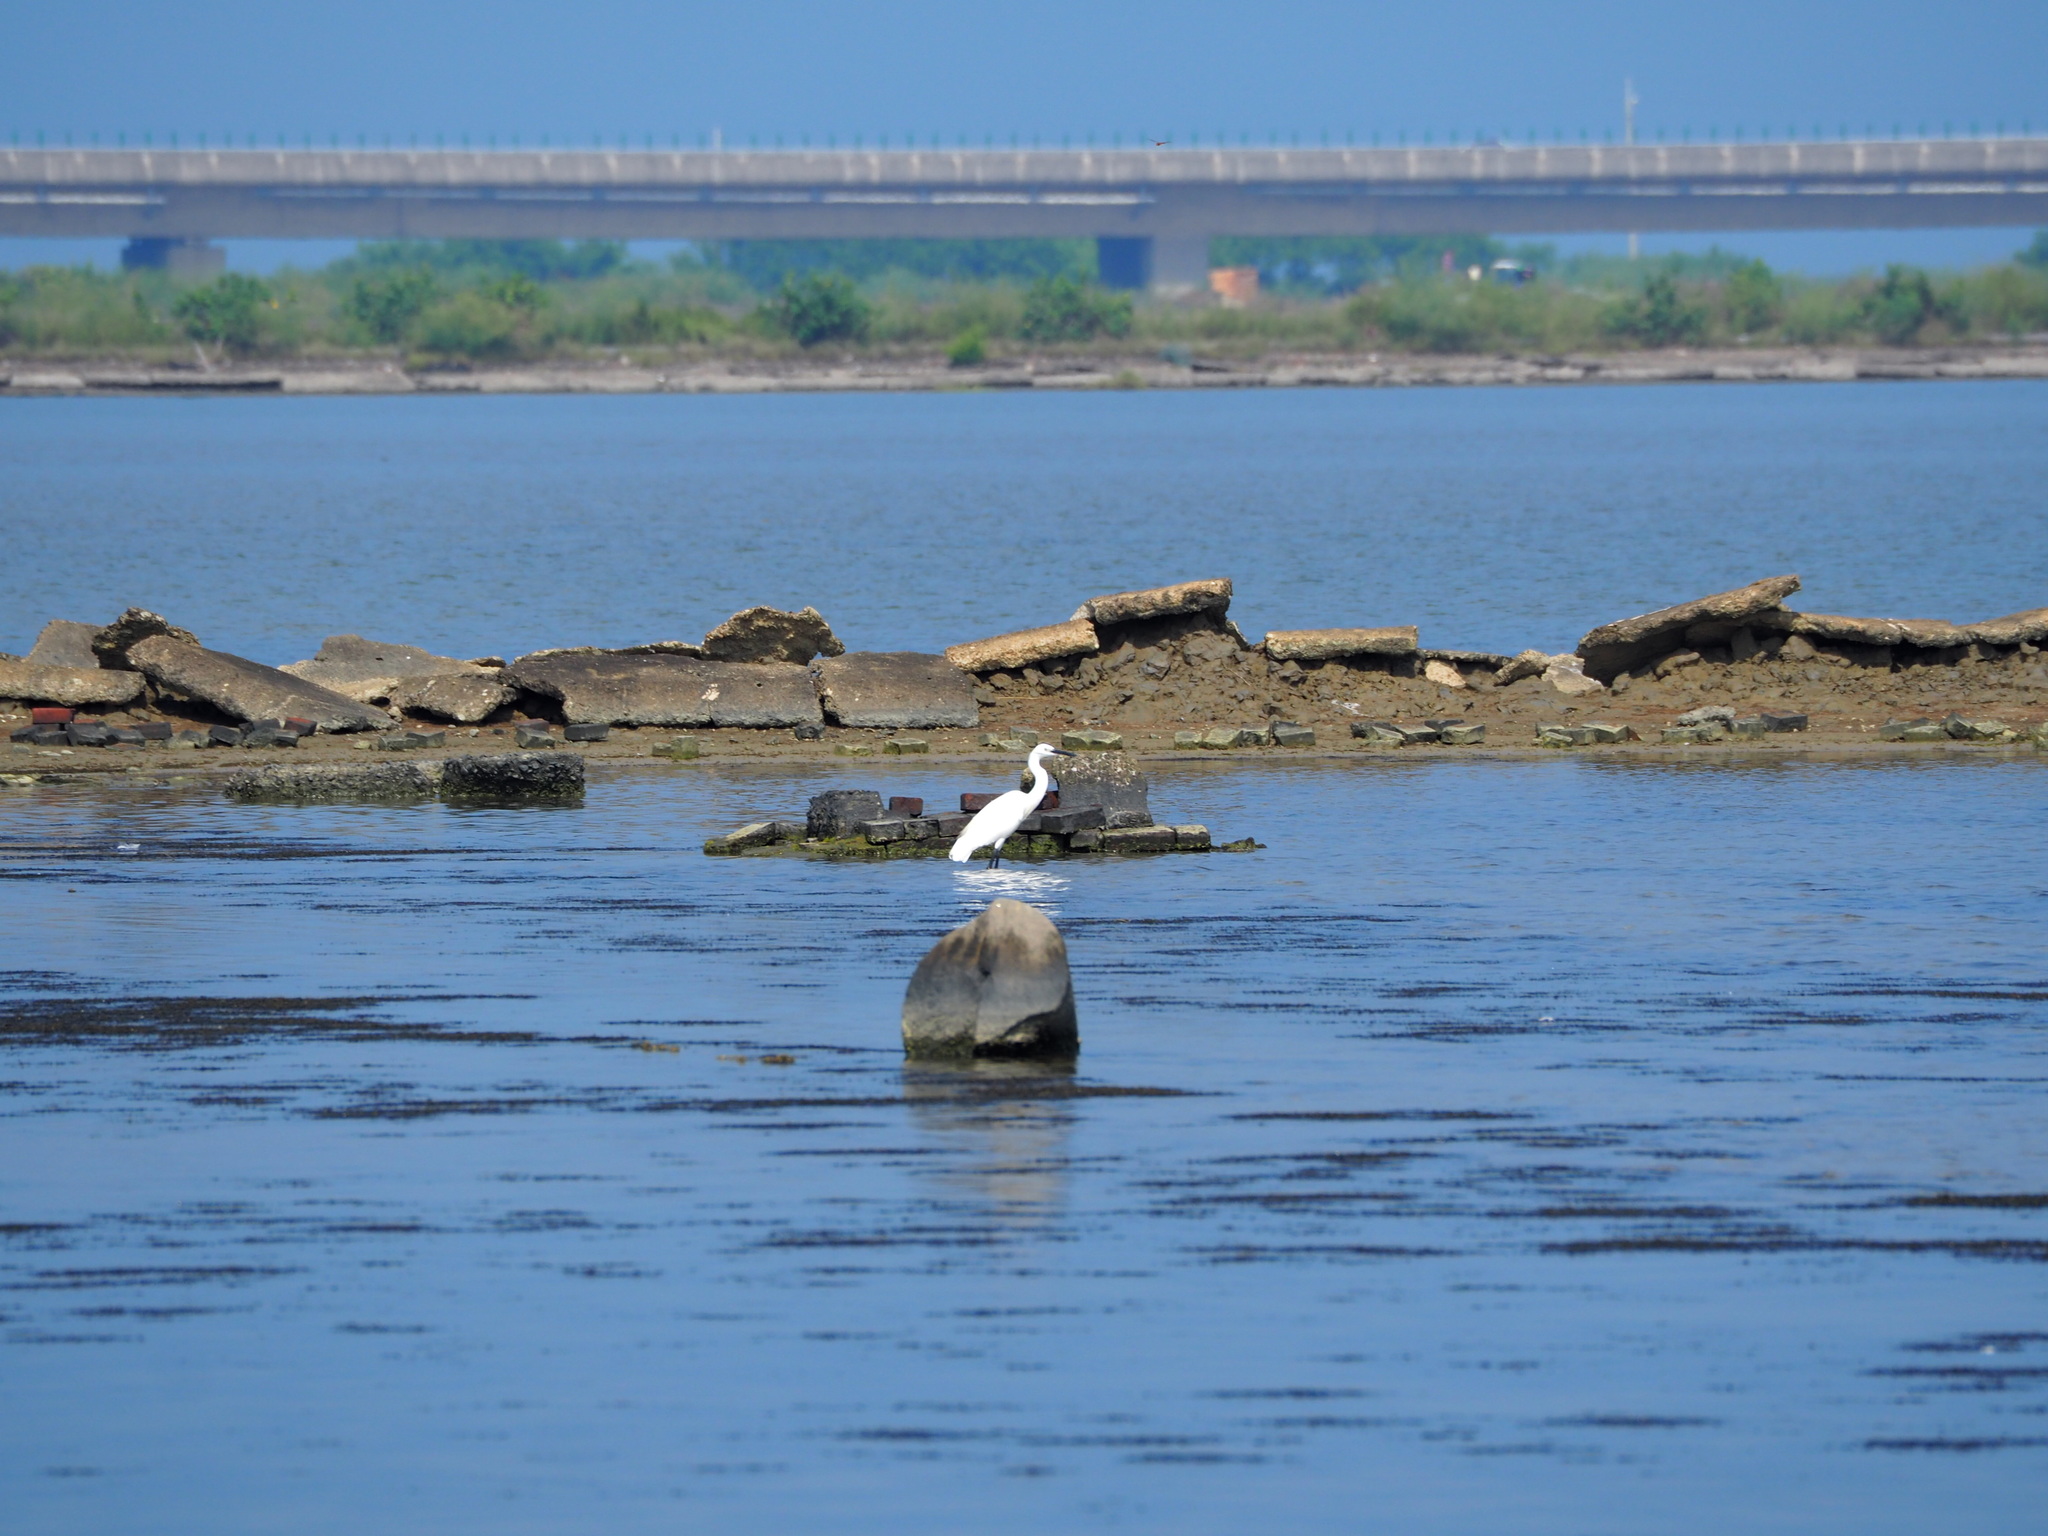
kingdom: Animalia
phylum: Chordata
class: Aves
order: Pelecaniformes
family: Ardeidae
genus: Egretta
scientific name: Egretta garzetta
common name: Little egret
